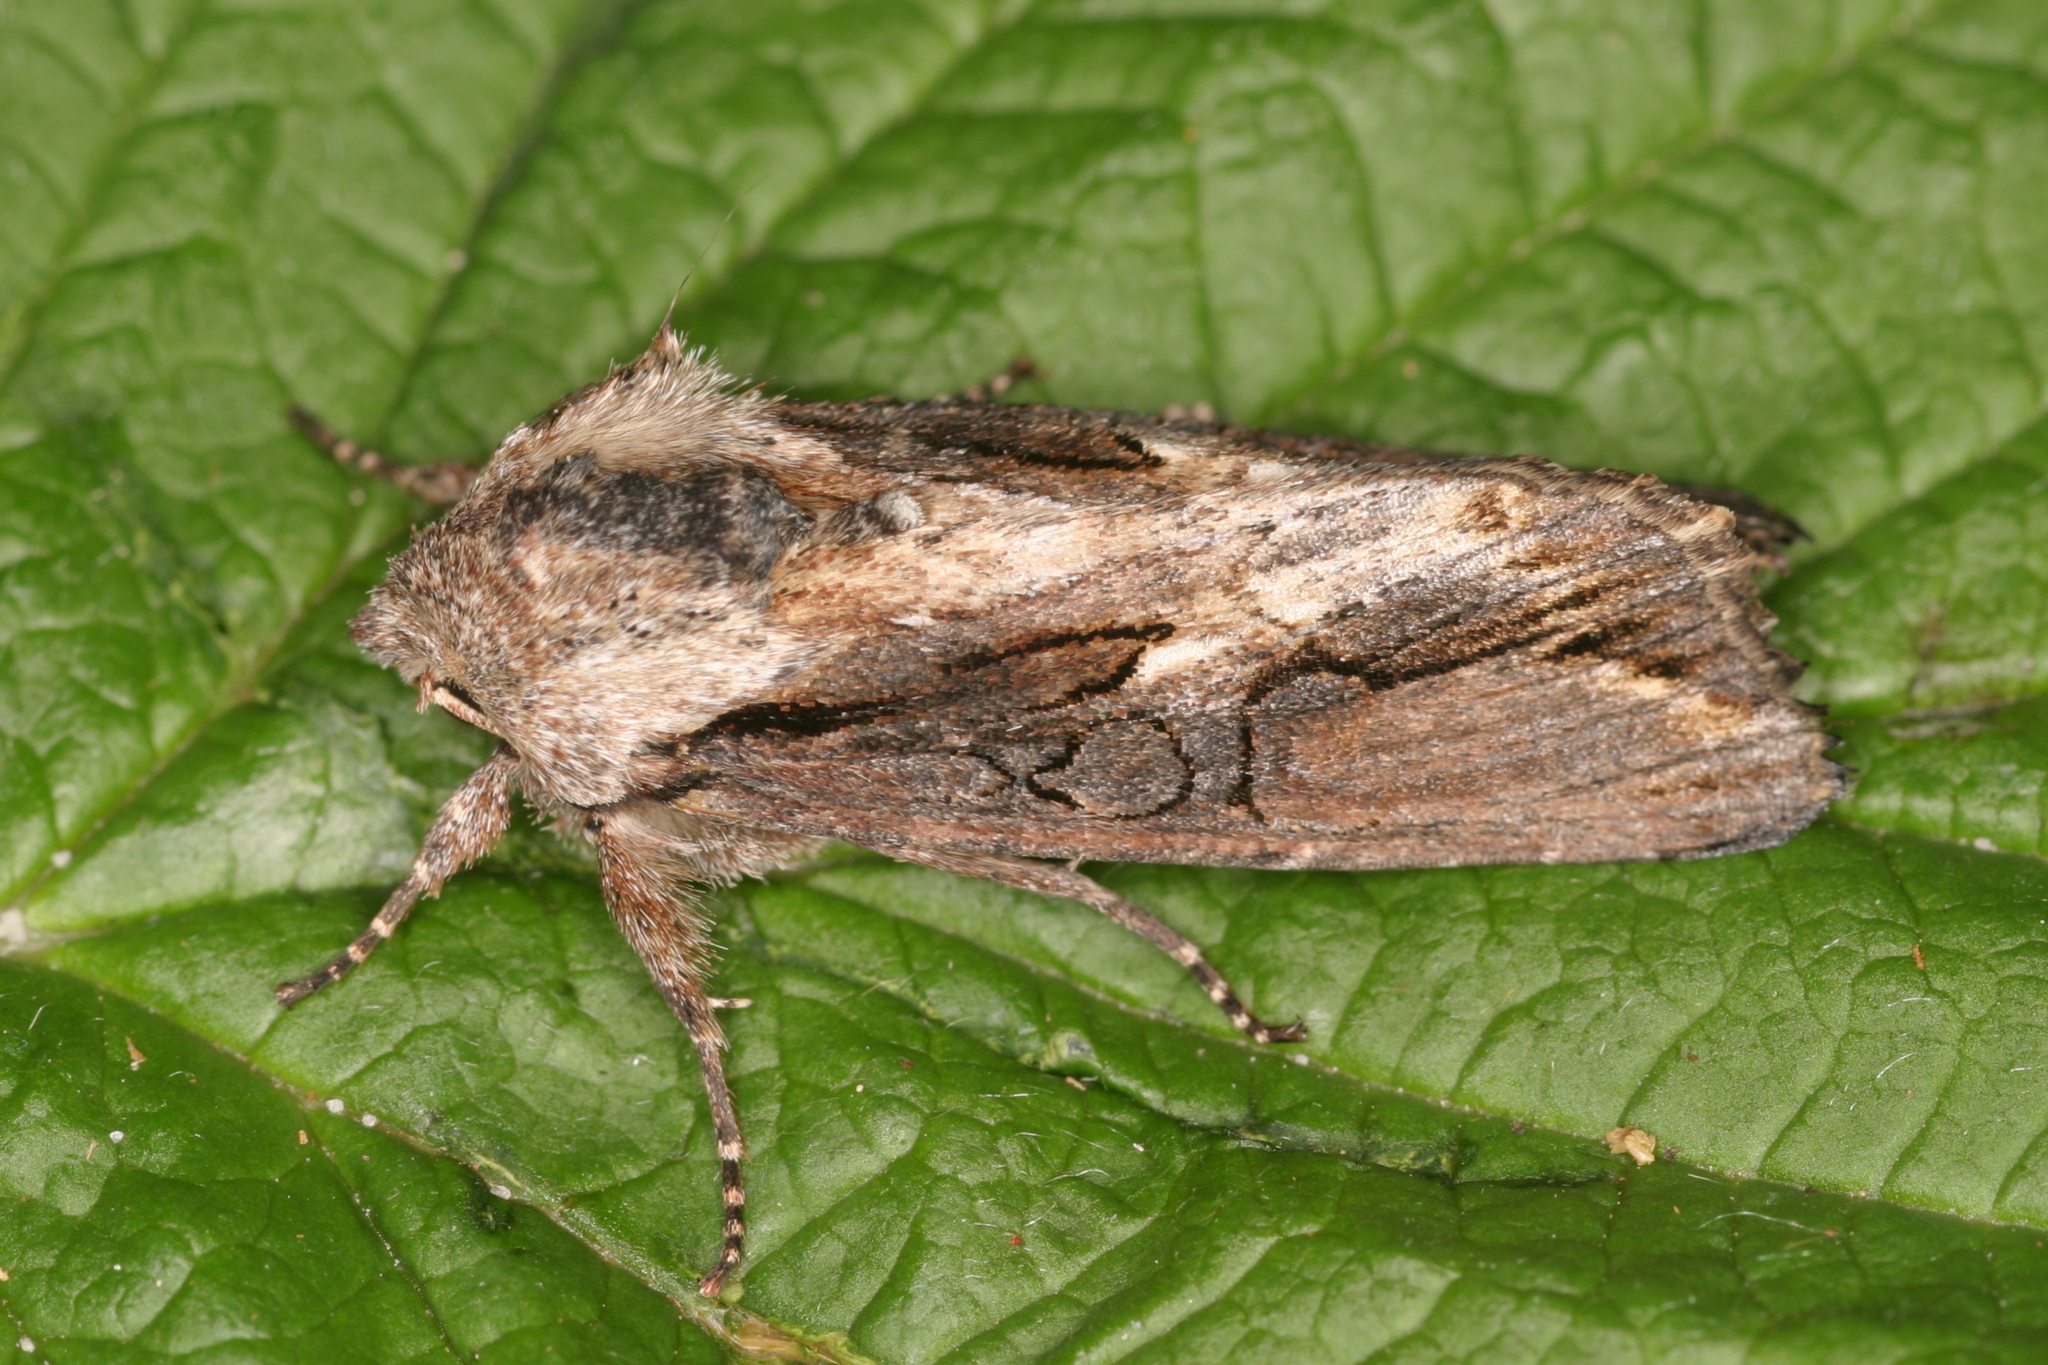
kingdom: Animalia
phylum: Arthropoda
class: Insecta
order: Lepidoptera
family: Noctuidae
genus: Egira
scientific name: Egira conspicillaris
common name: Silver cloud
